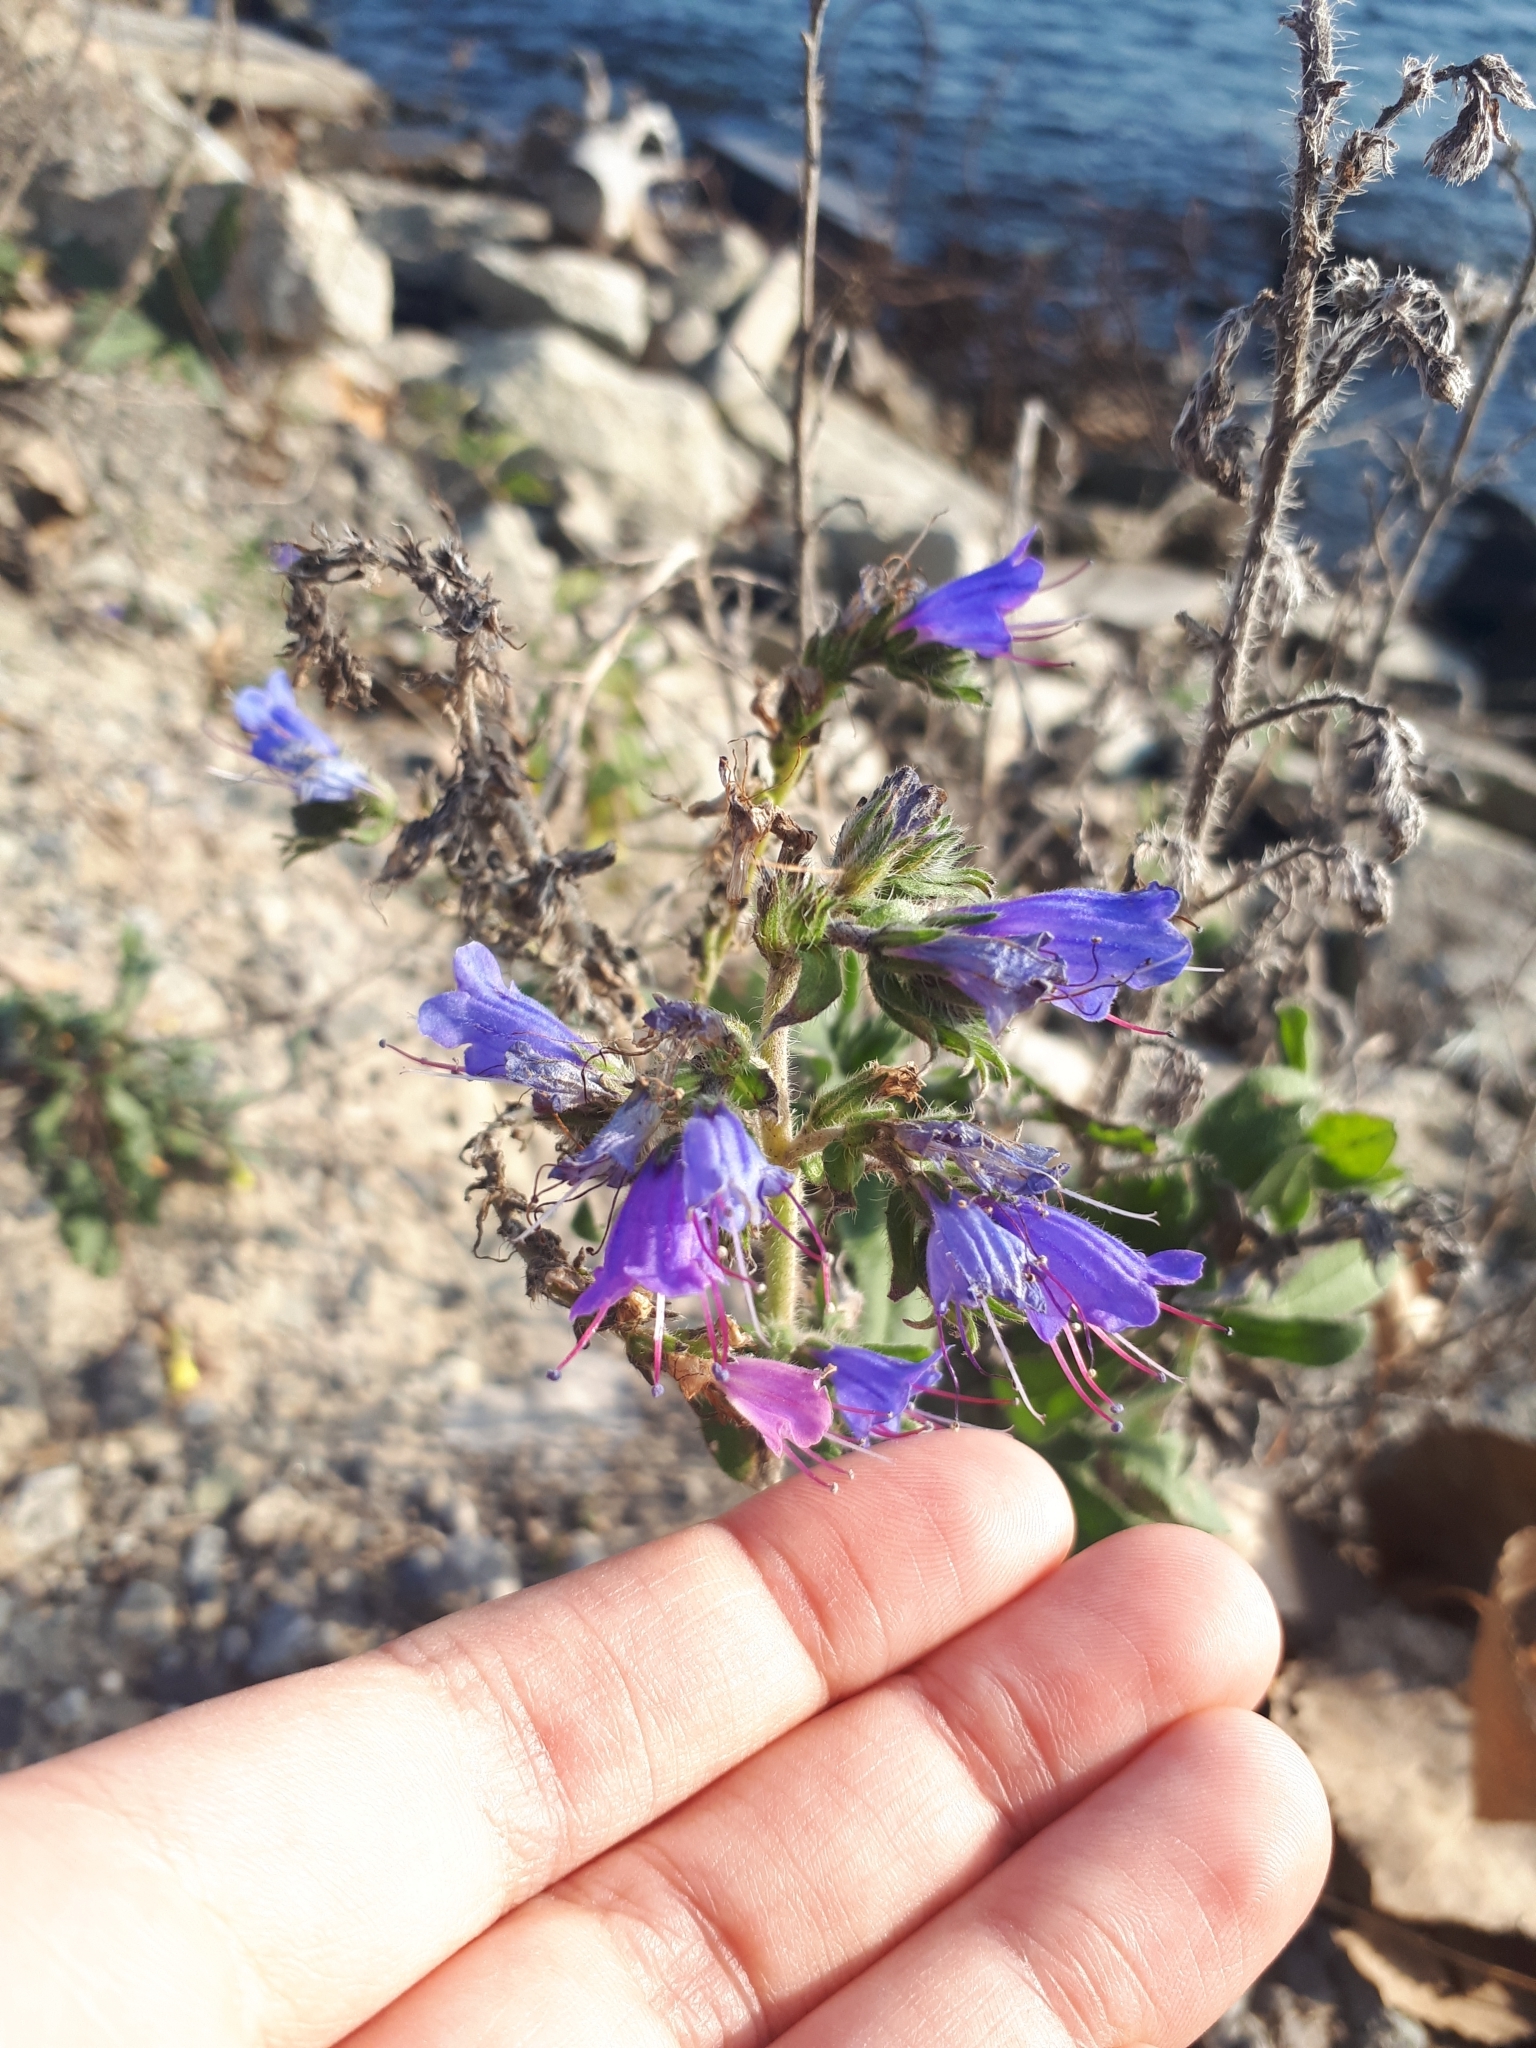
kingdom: Plantae
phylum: Tracheophyta
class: Magnoliopsida
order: Boraginales
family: Boraginaceae
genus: Echium
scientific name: Echium vulgare
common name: Common viper's bugloss
